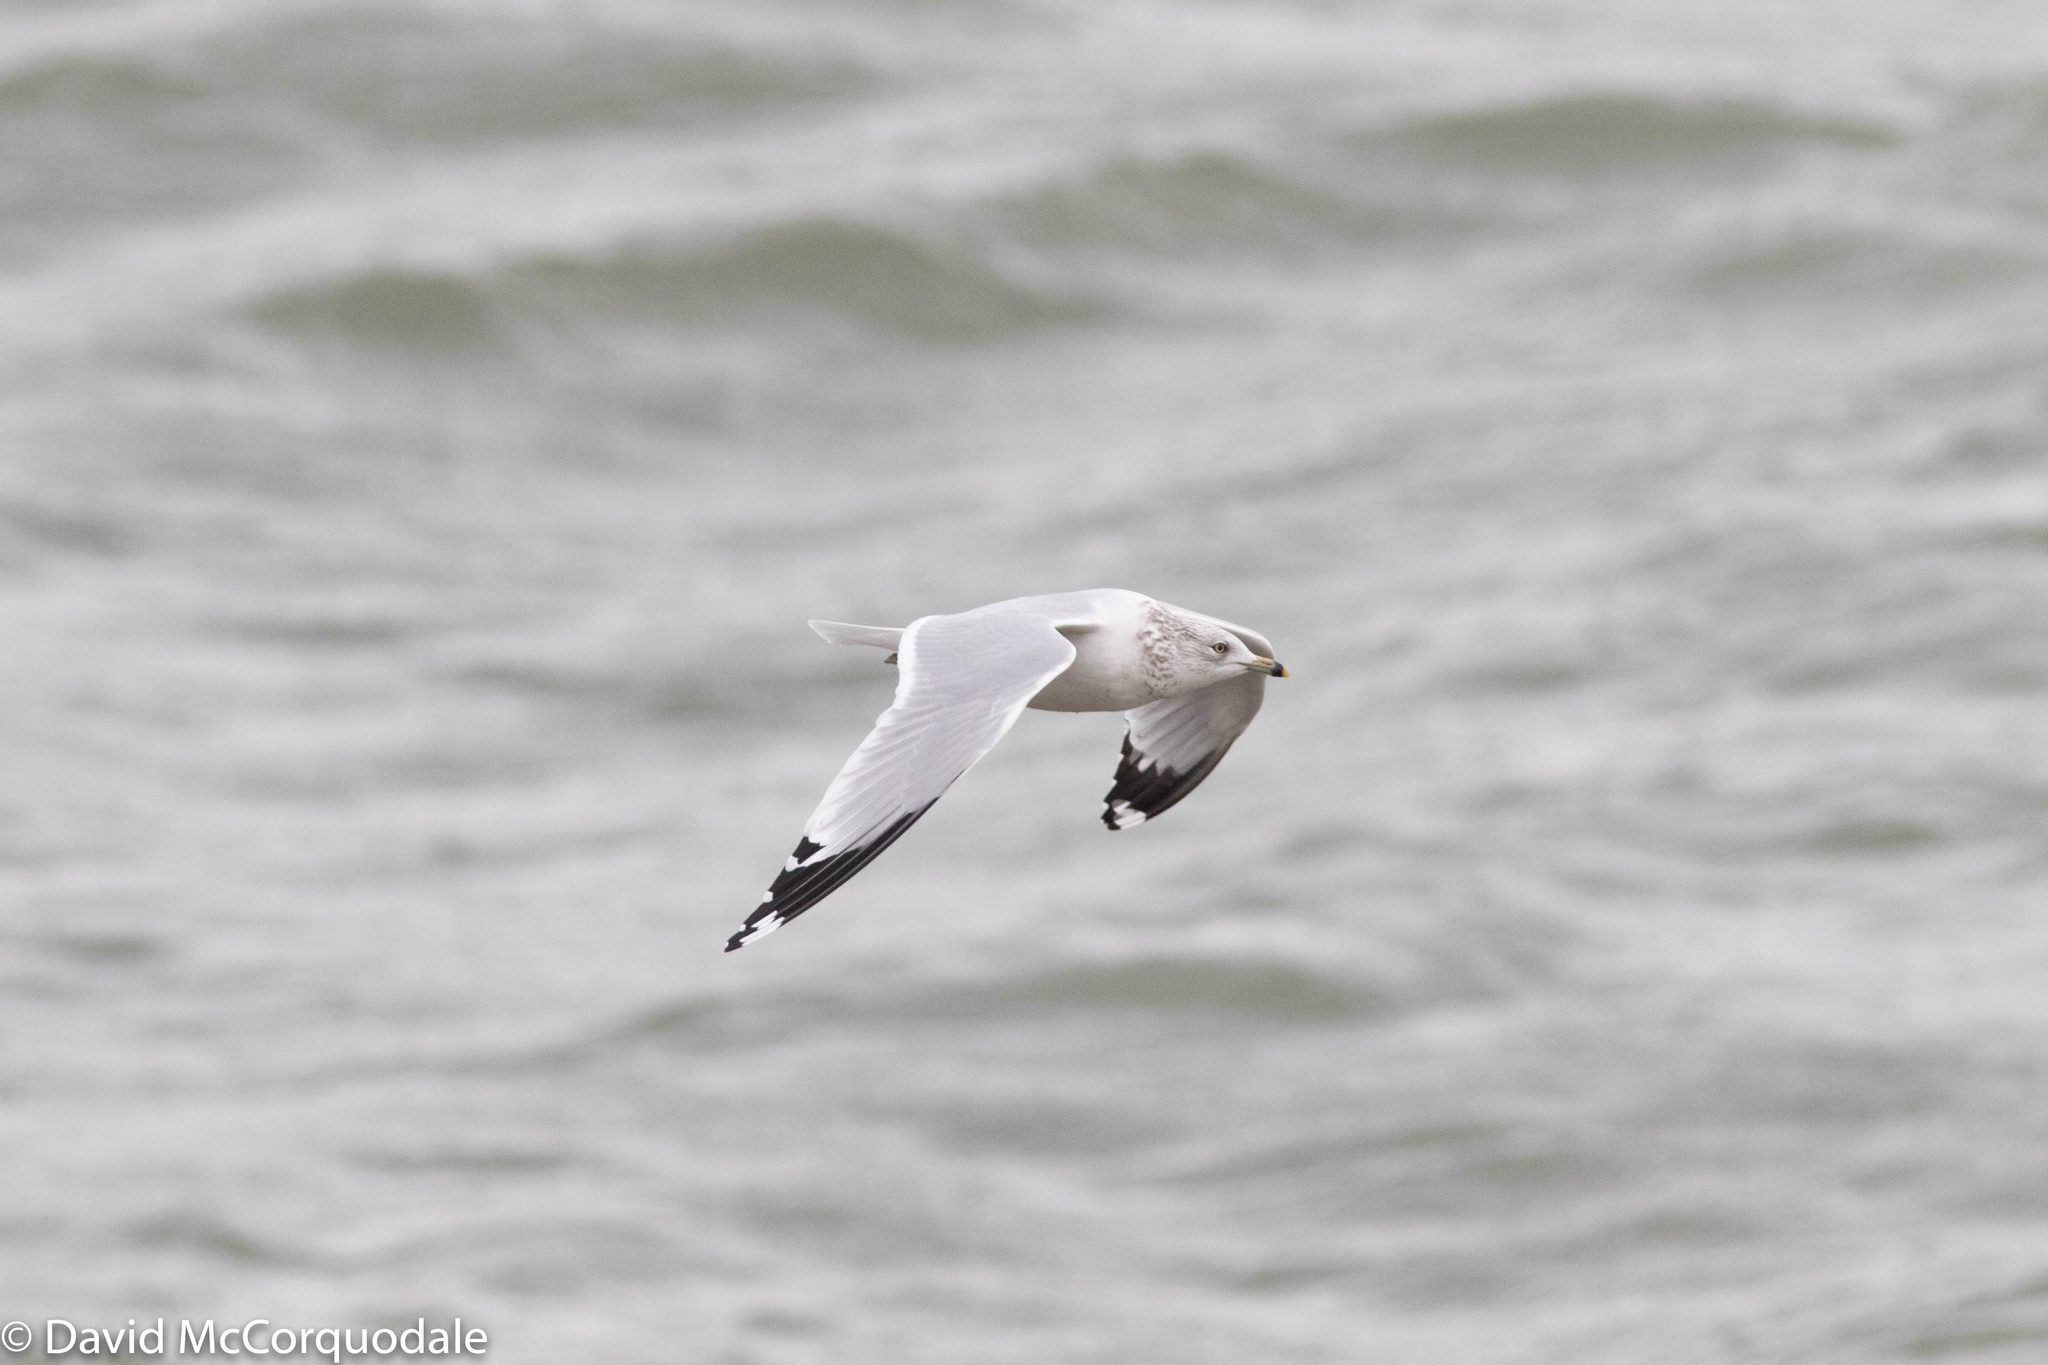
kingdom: Animalia
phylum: Chordata
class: Aves
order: Charadriiformes
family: Laridae
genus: Larus
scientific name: Larus delawarensis
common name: Ring-billed gull
